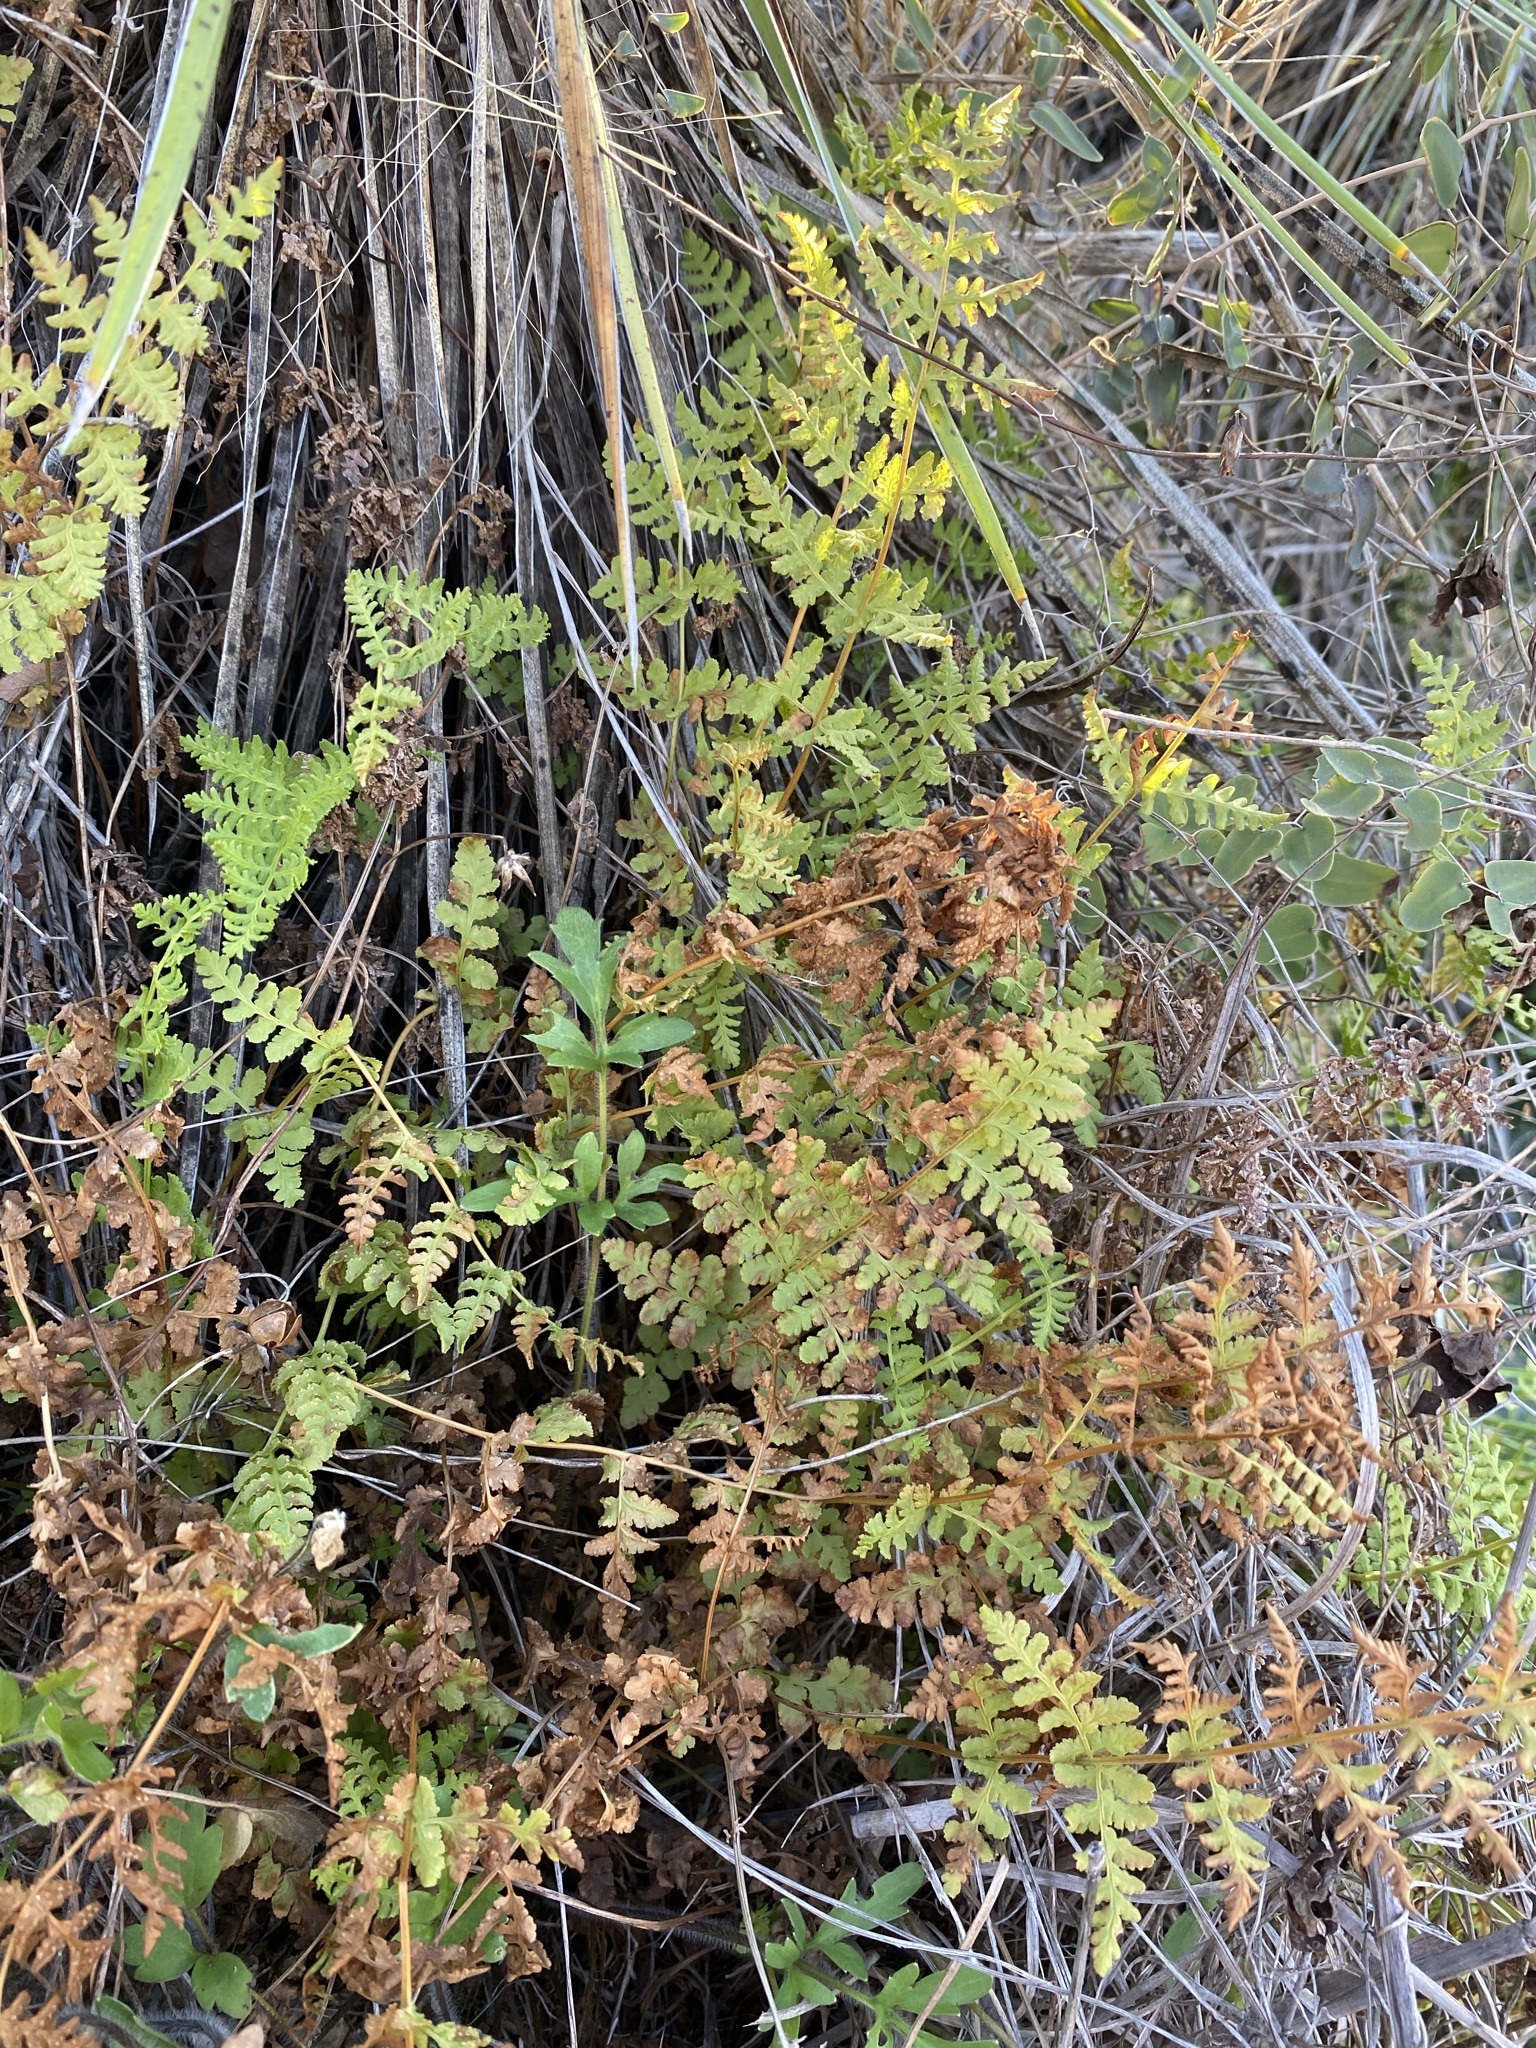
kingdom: Plantae
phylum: Tracheophyta
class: Polypodiopsida
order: Polypodiales
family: Woodsiaceae
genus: Physematium
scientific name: Physematium obtusum
